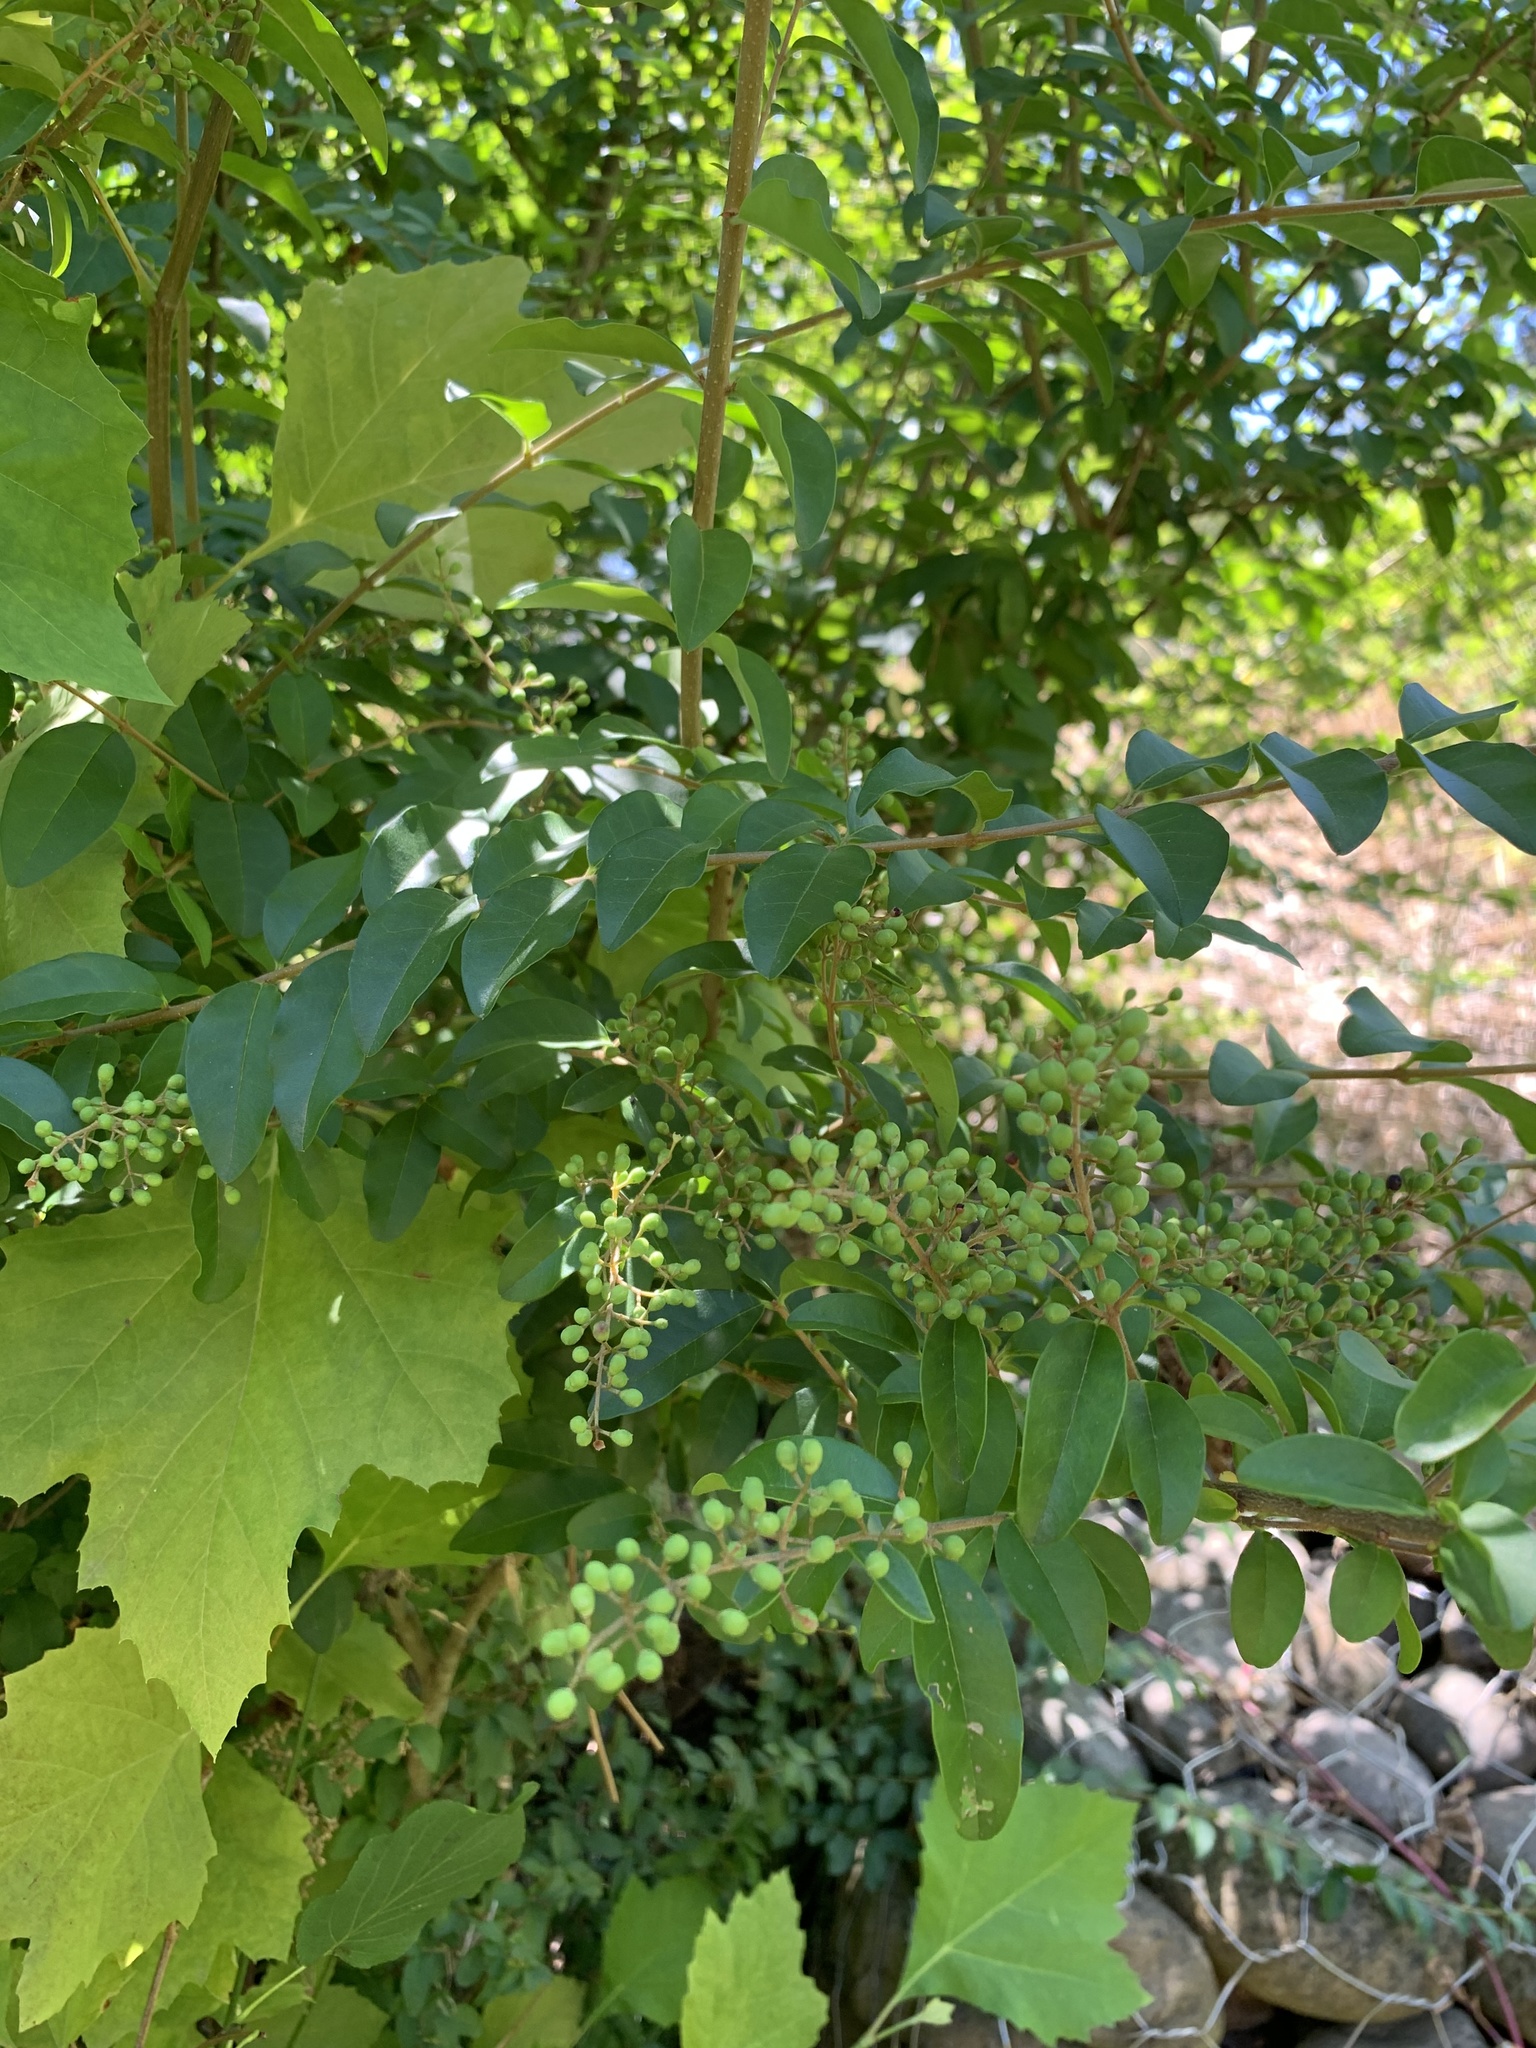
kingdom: Plantae
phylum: Tracheophyta
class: Magnoliopsida
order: Lamiales
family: Oleaceae
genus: Ligustrum
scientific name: Ligustrum sinense
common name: Chinese privet
